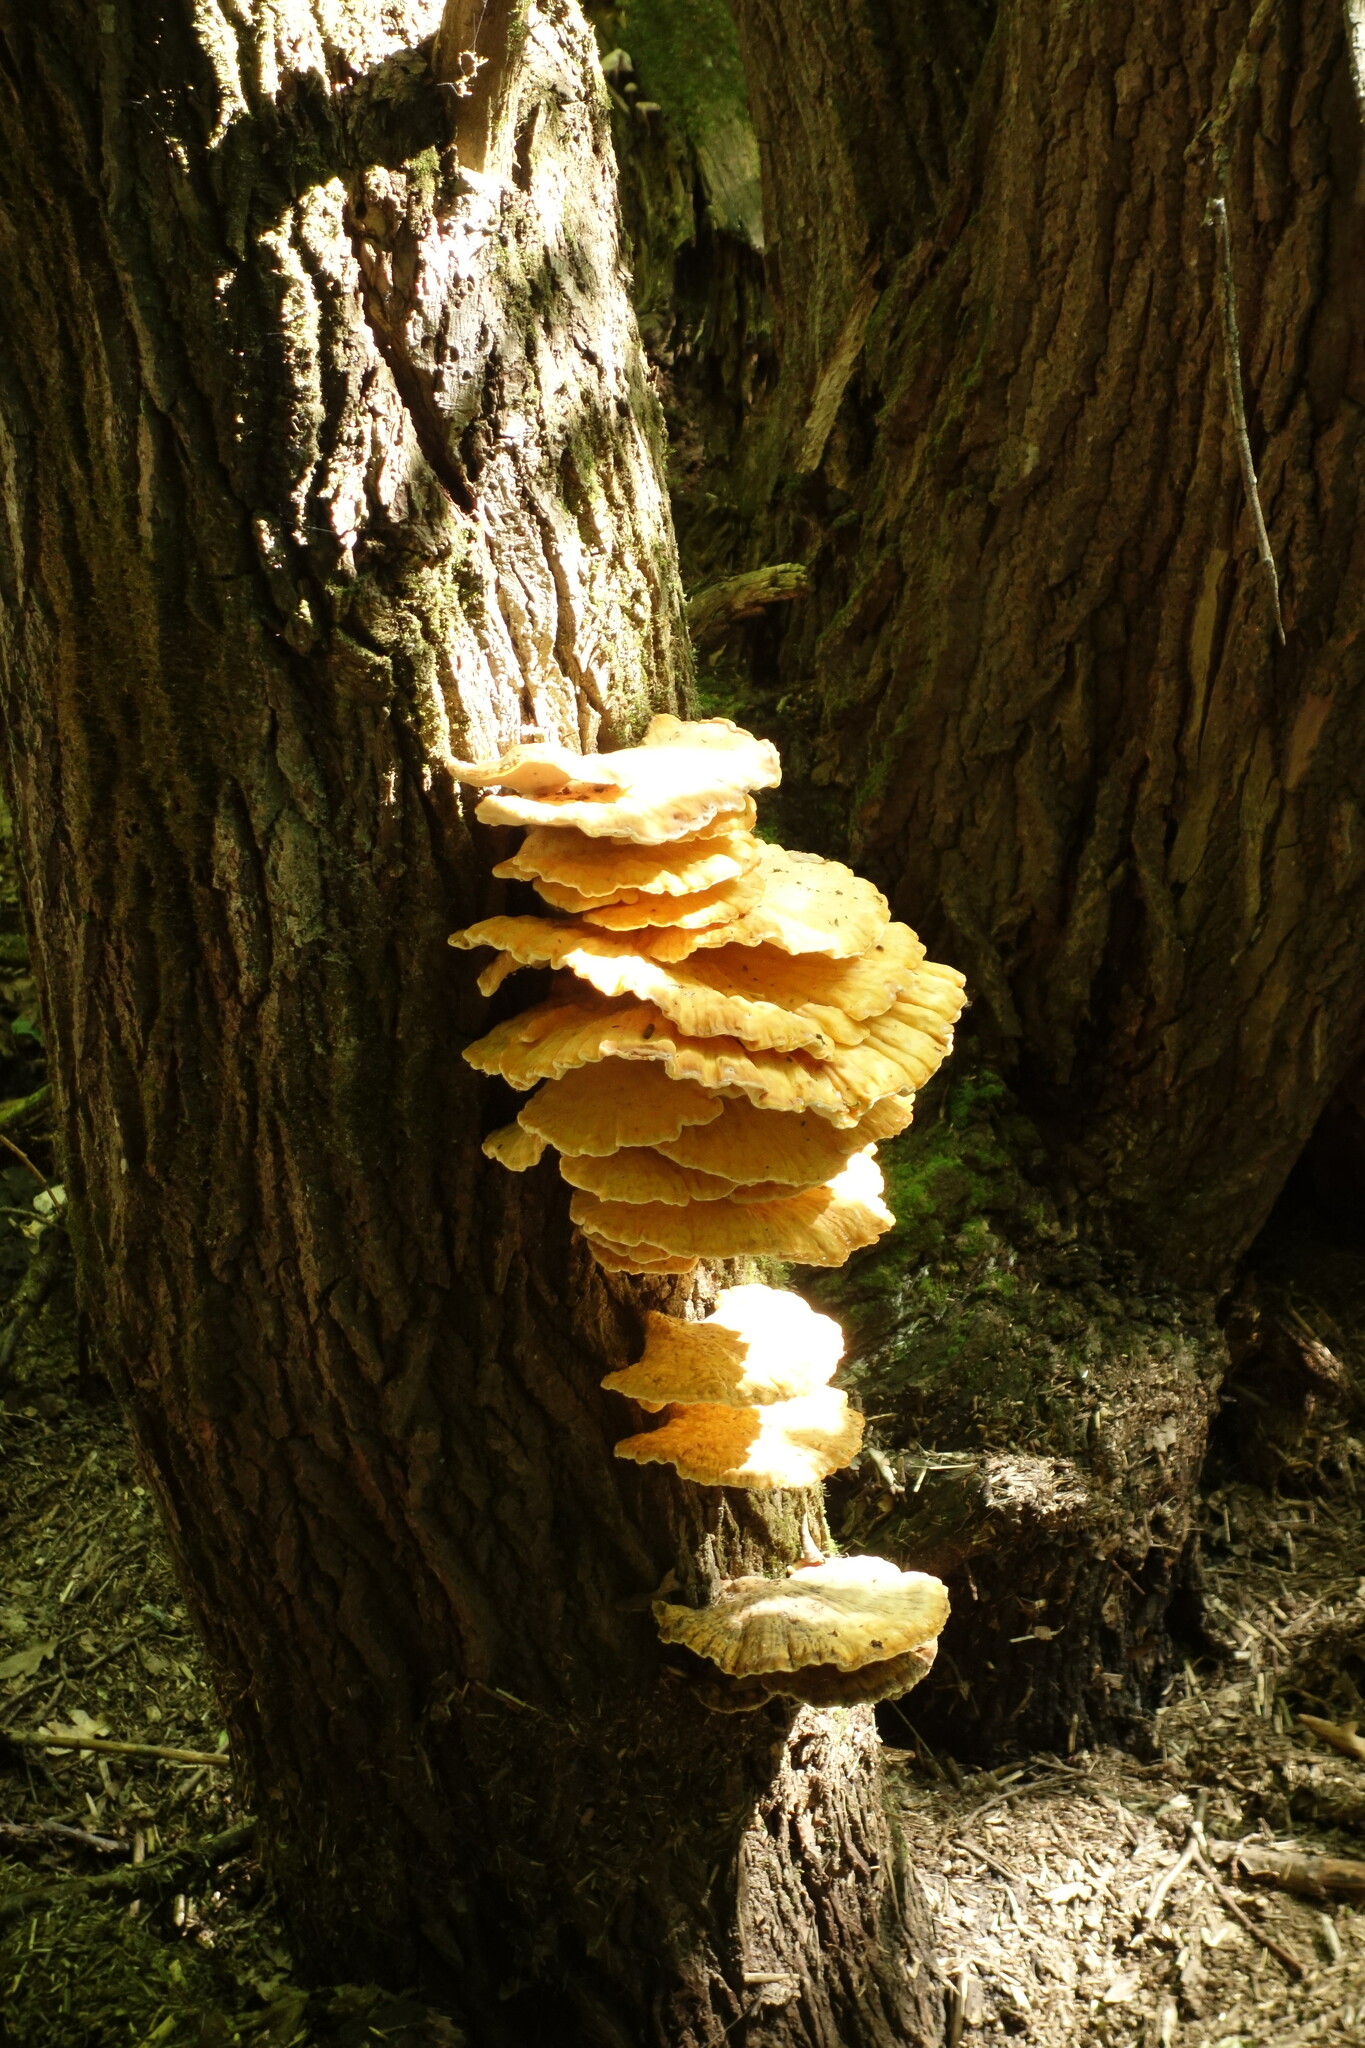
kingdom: Fungi
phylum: Basidiomycota
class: Agaricomycetes
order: Polyporales
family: Laetiporaceae
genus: Laetiporus
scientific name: Laetiporus sulphureus
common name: Chicken of the woods
